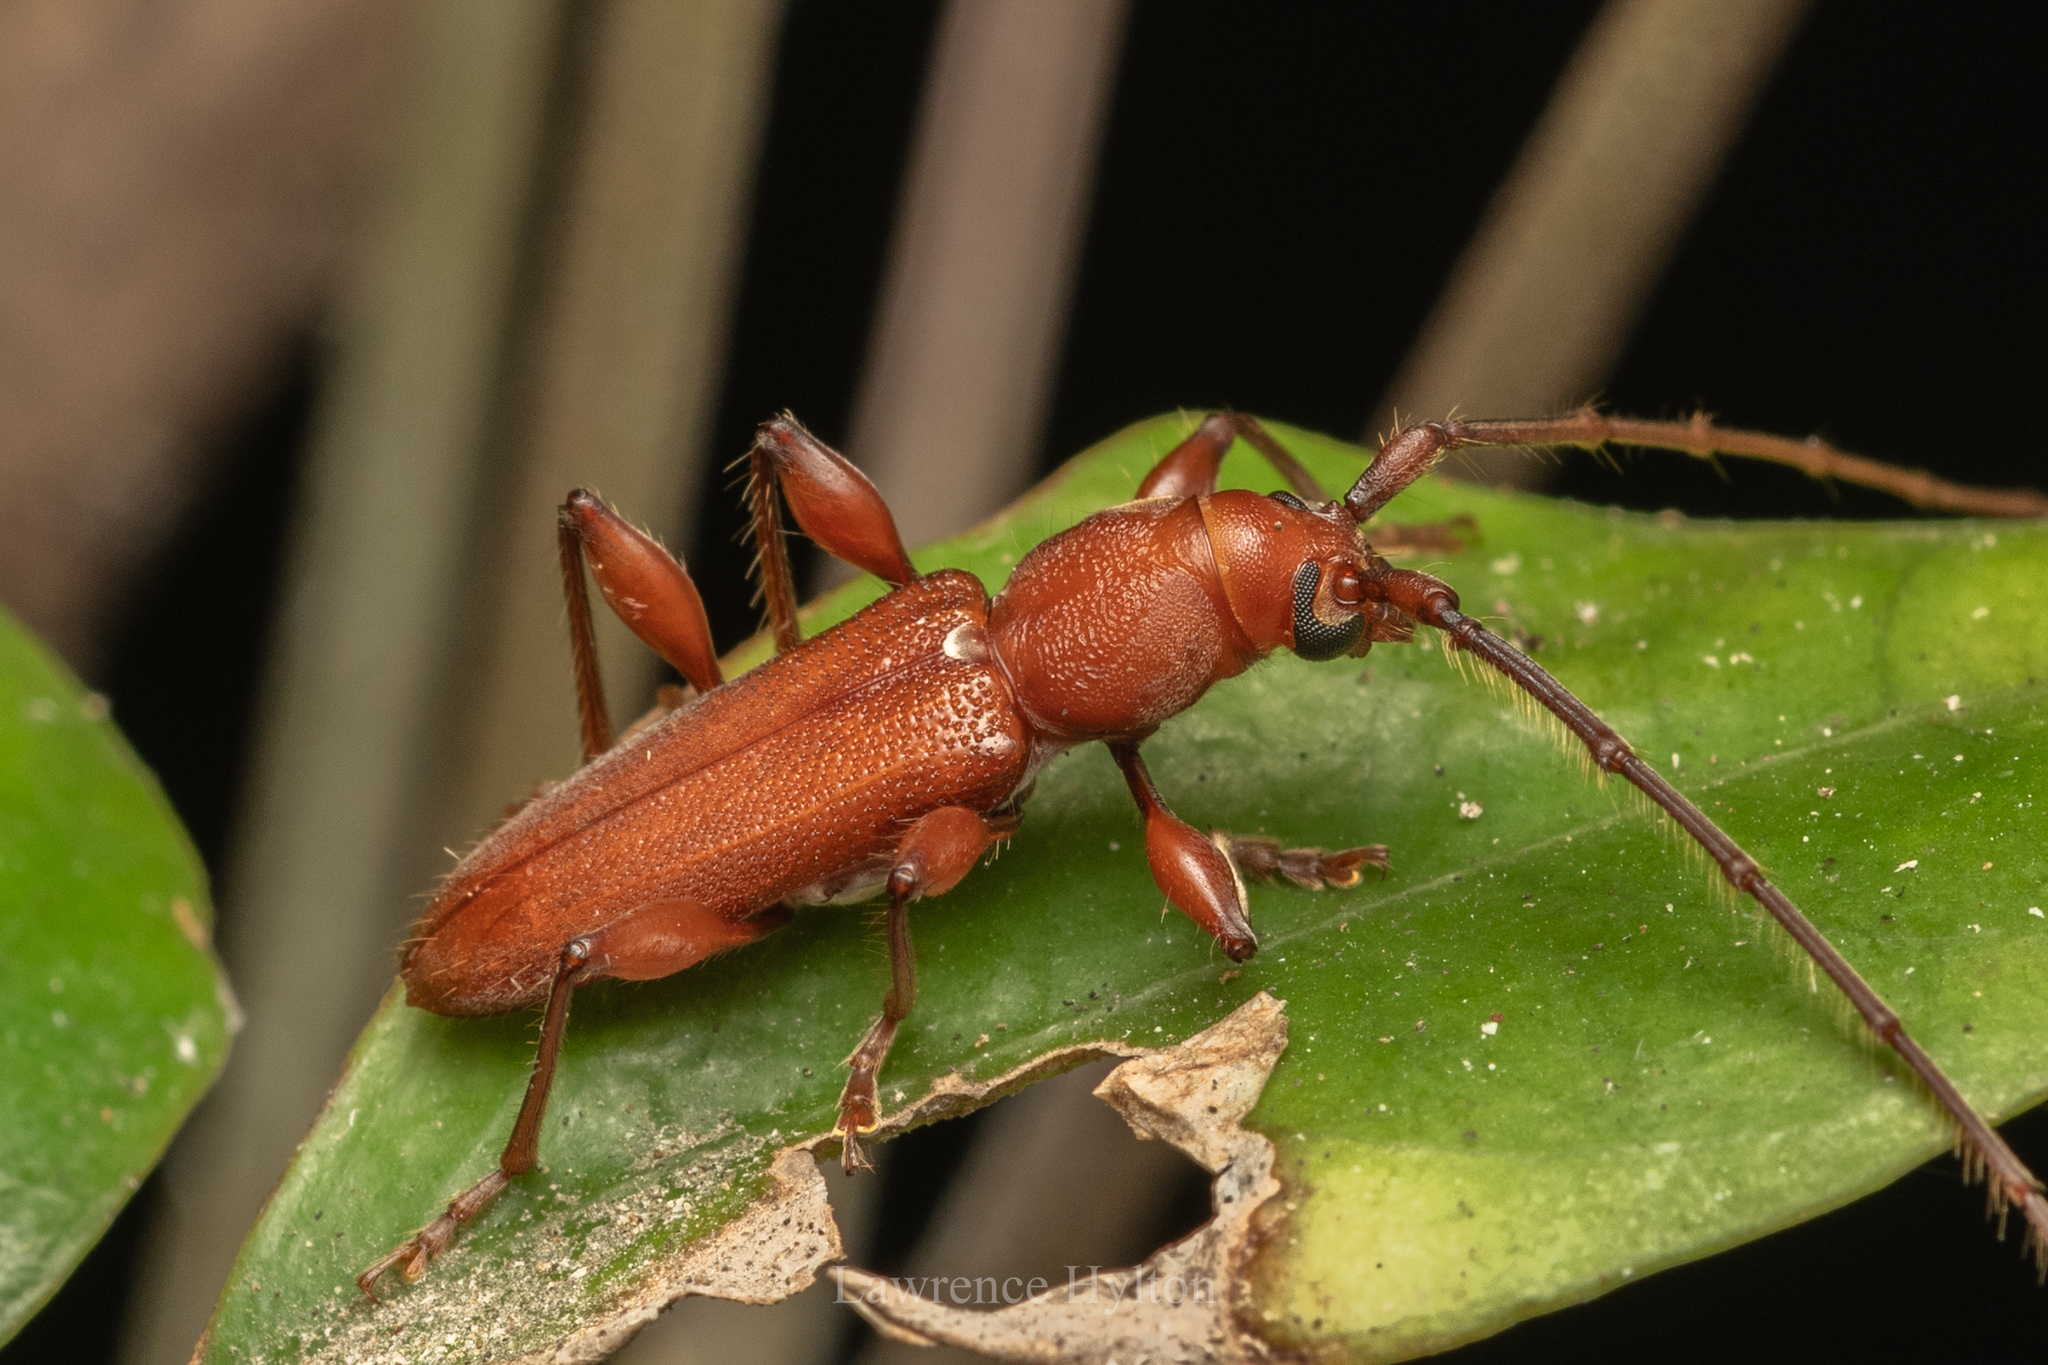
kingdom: Animalia
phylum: Arthropoda
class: Insecta
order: Coleoptera
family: Cerambycidae
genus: Nysina
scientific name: Nysina rufescens
